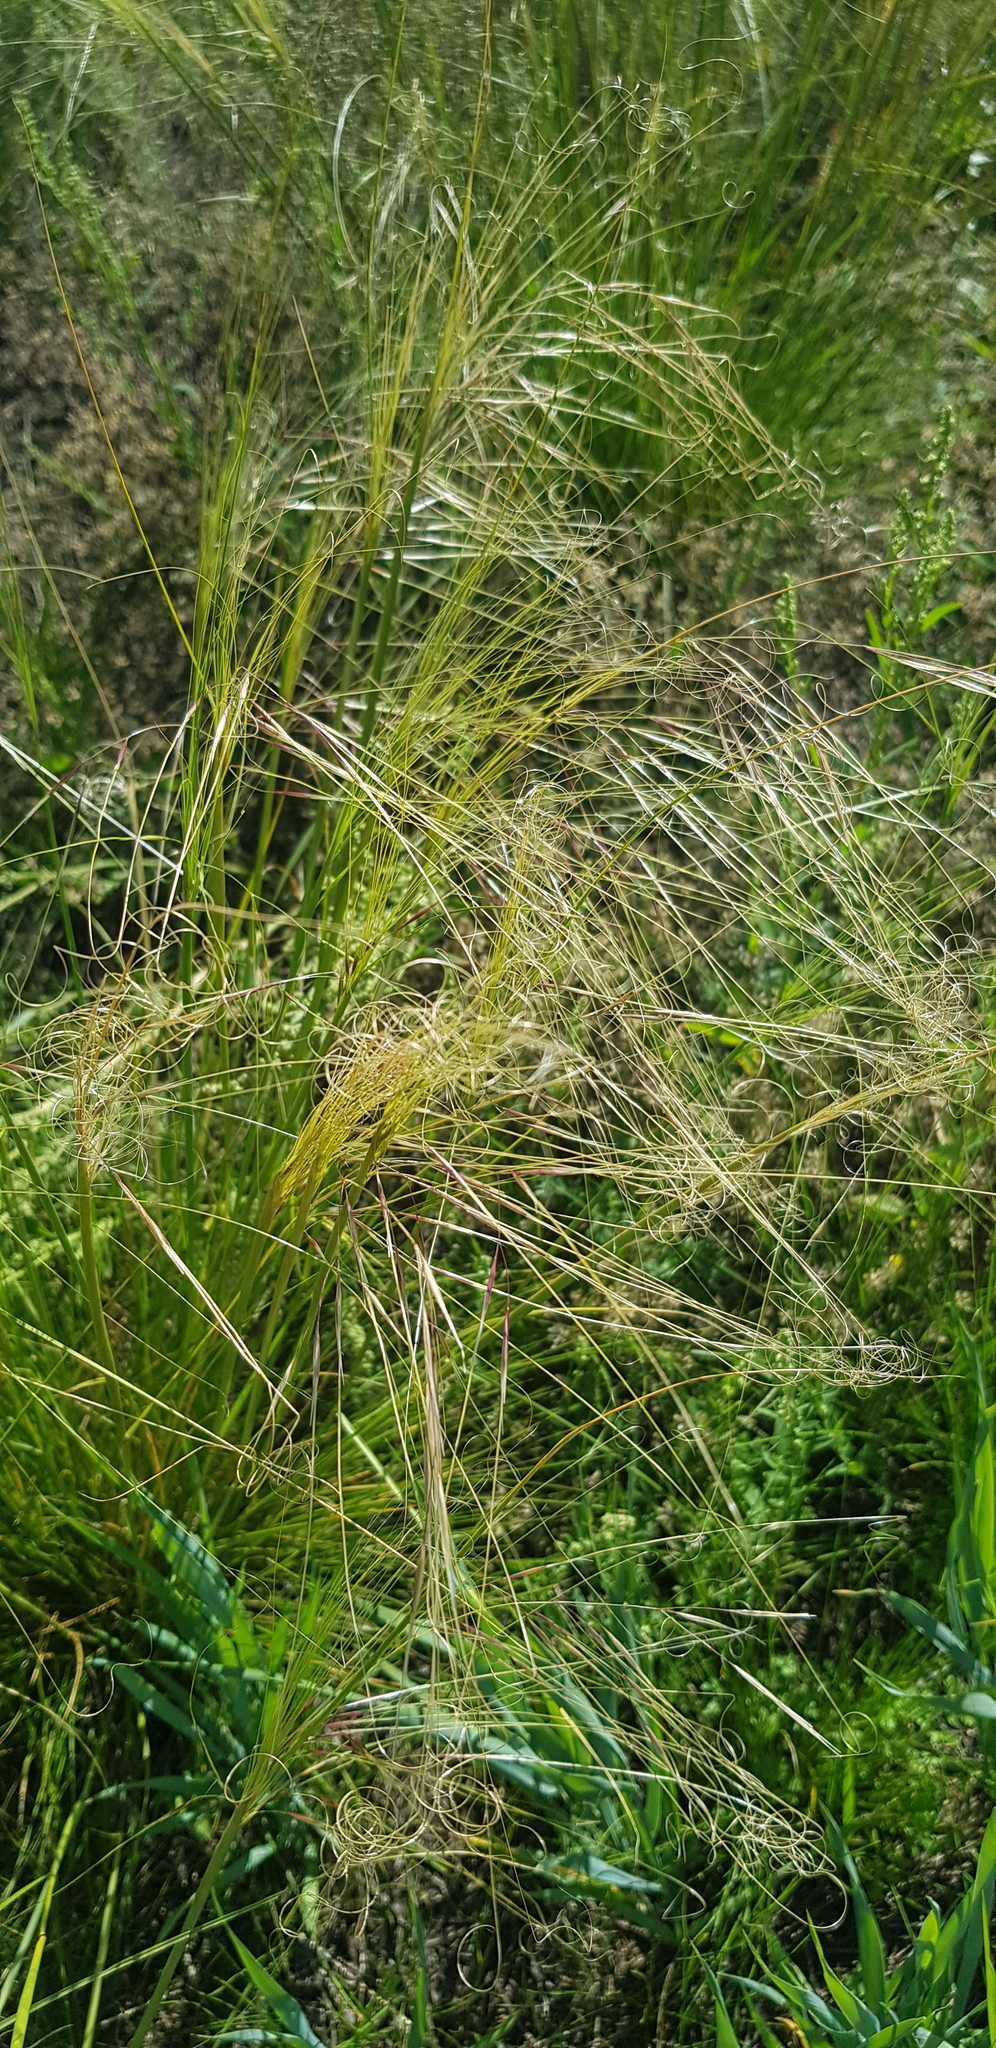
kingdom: Plantae
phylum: Tracheophyta
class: Liliopsida
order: Poales
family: Poaceae
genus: Stipa
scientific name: Stipa krylovii
